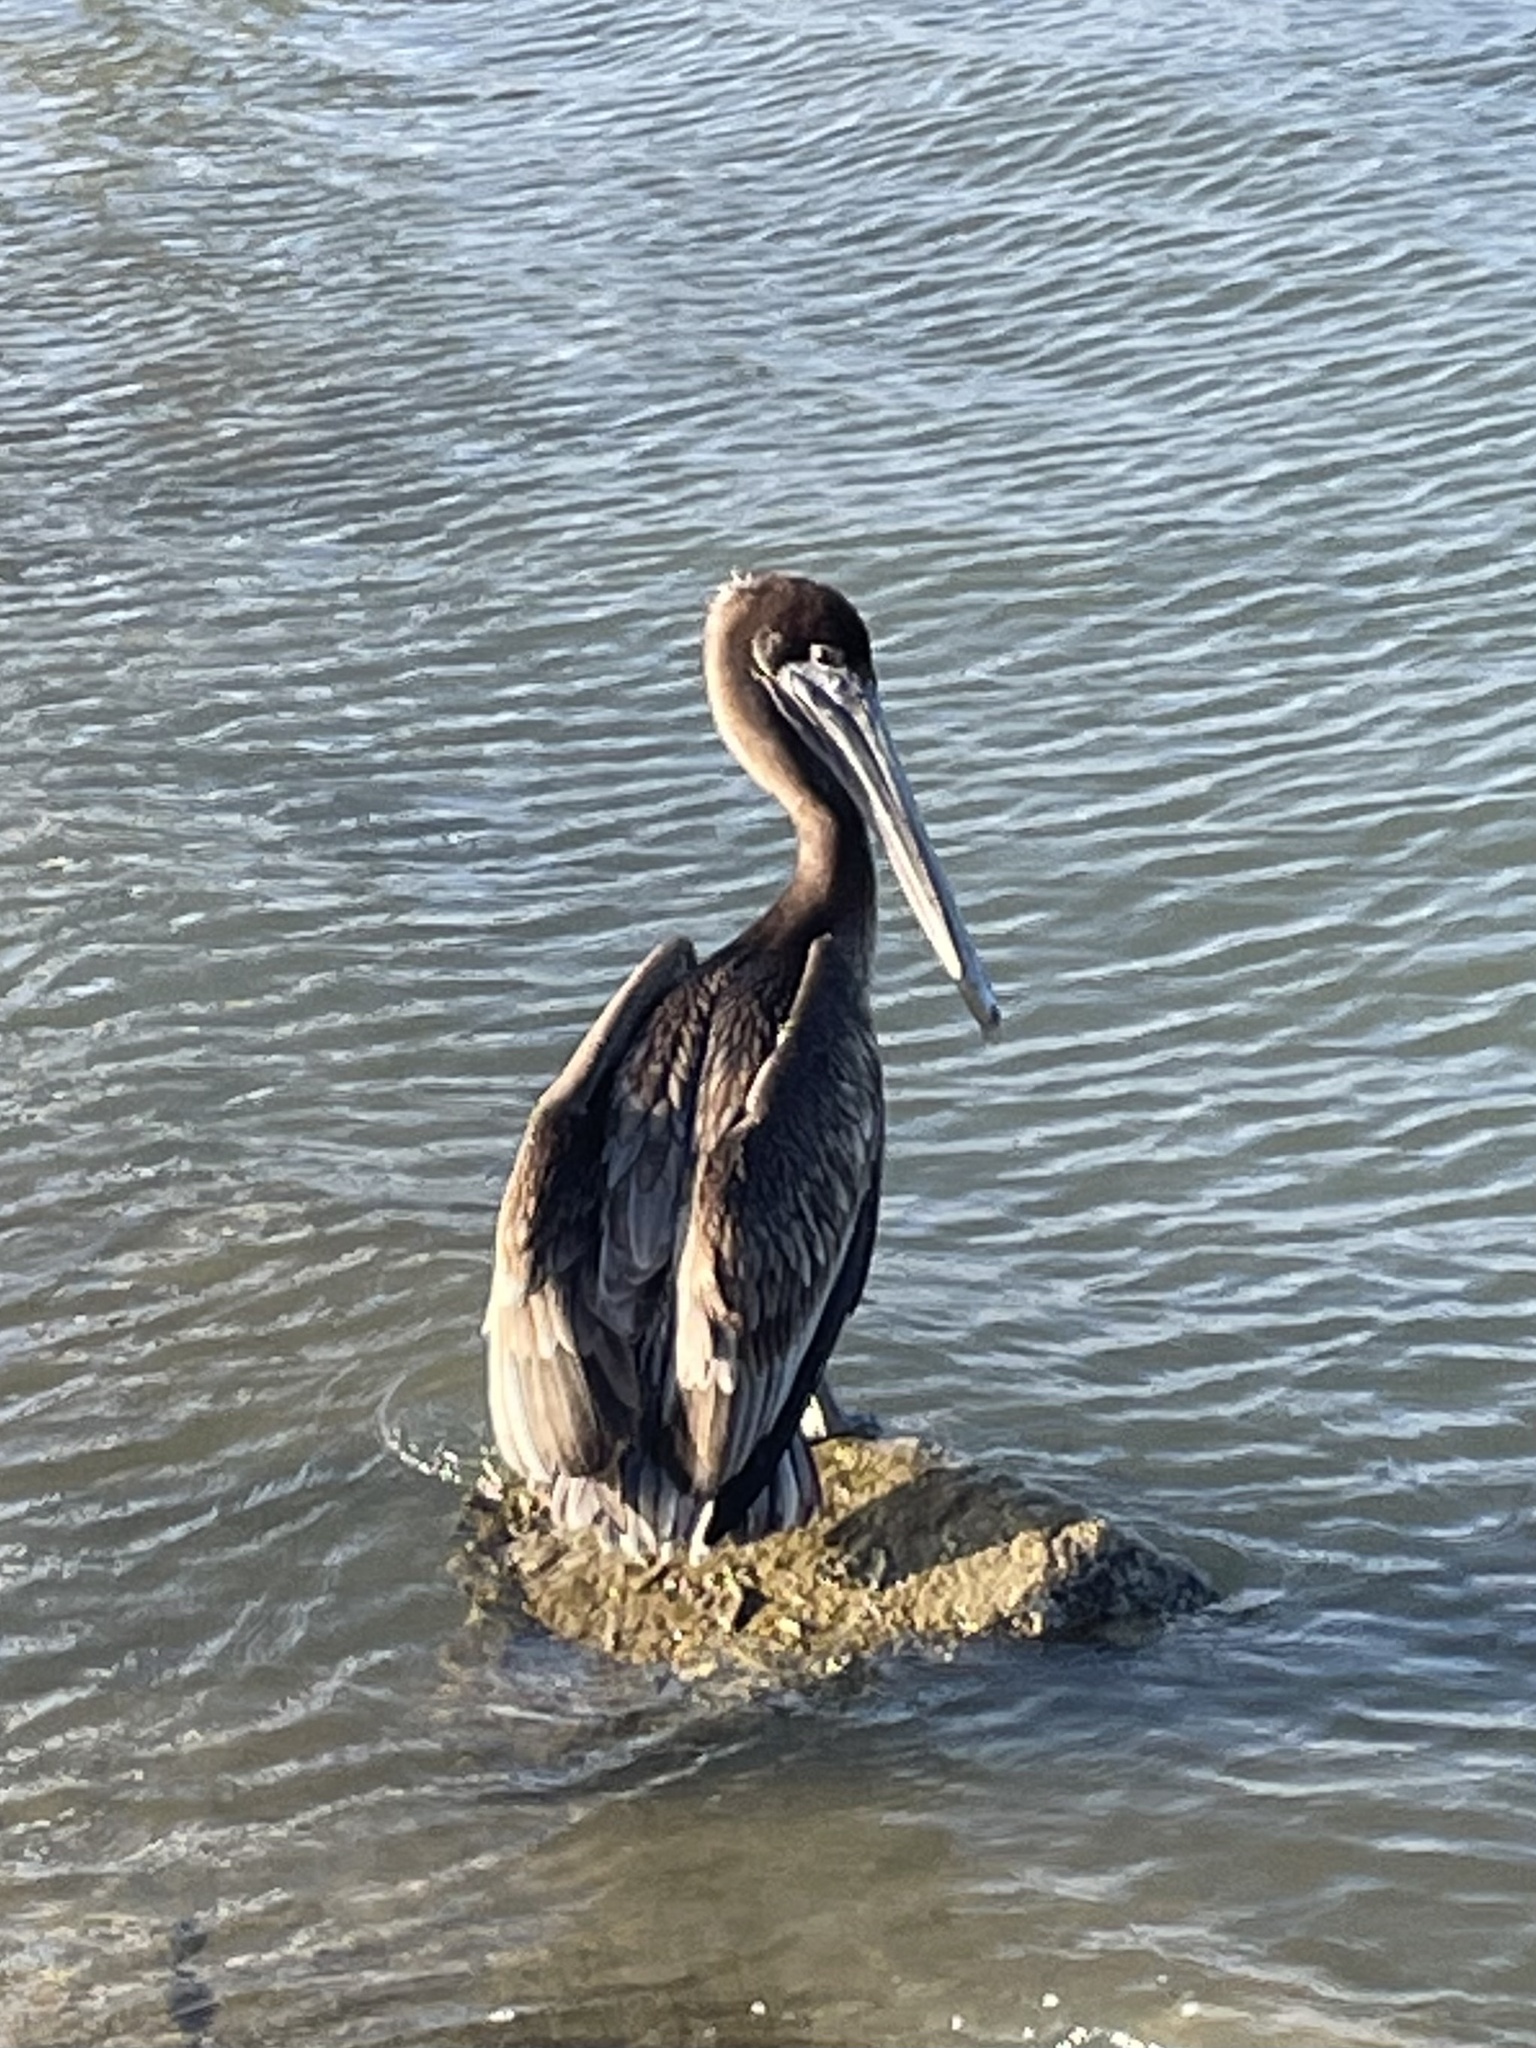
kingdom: Animalia
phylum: Chordata
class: Aves
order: Pelecaniformes
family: Pelecanidae
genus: Pelecanus
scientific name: Pelecanus occidentalis
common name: Brown pelican
